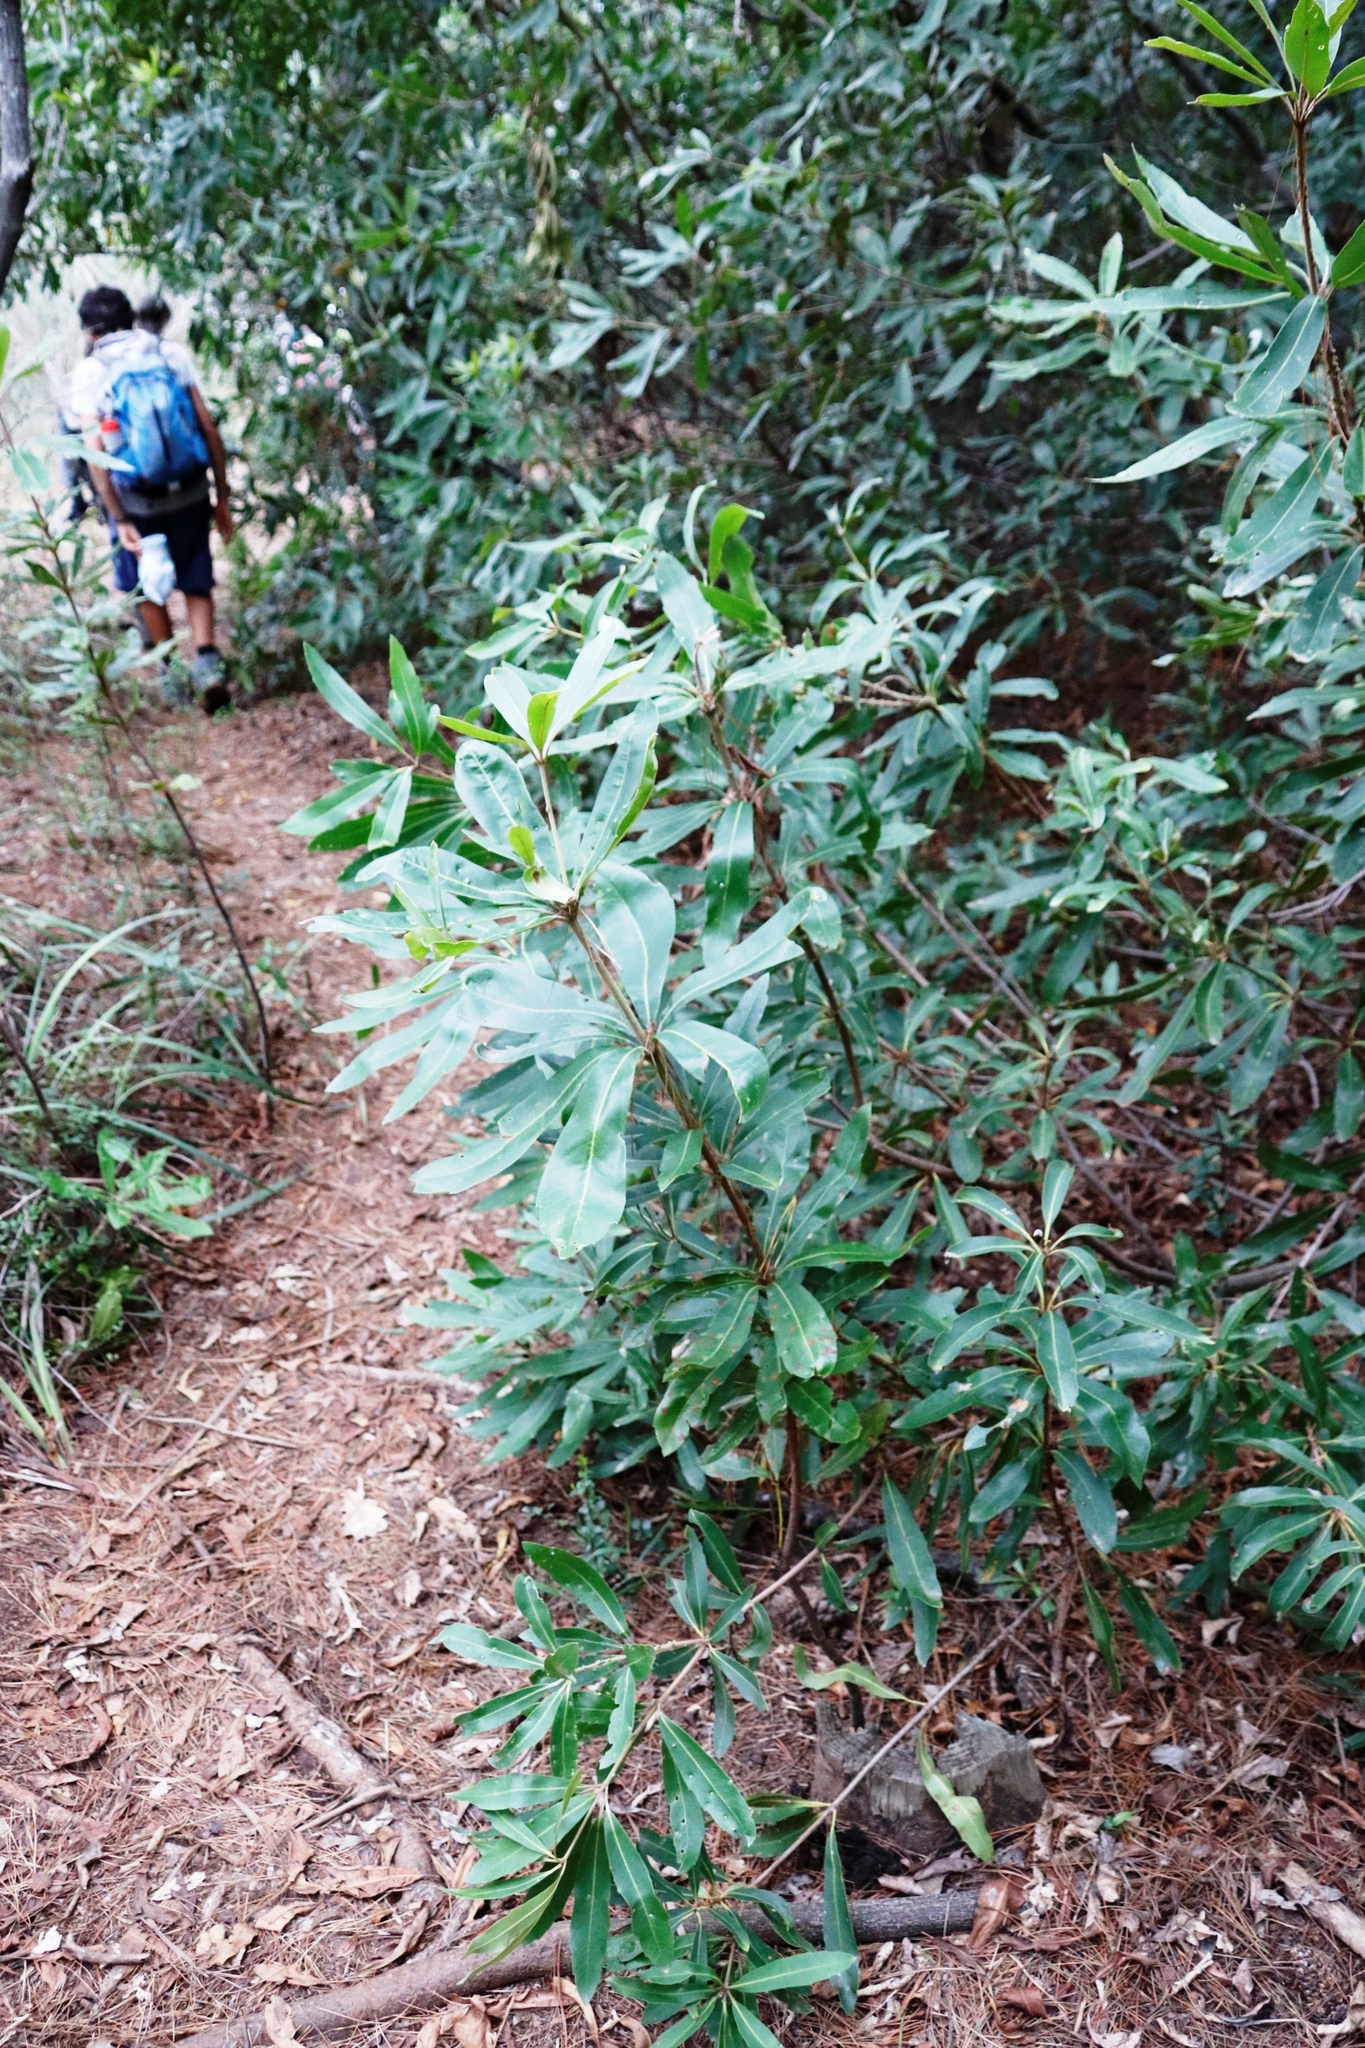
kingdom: Plantae
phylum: Tracheophyta
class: Magnoliopsida
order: Proteales
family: Proteaceae
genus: Brabejum
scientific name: Brabejum stellatifolium
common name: Wild almond
